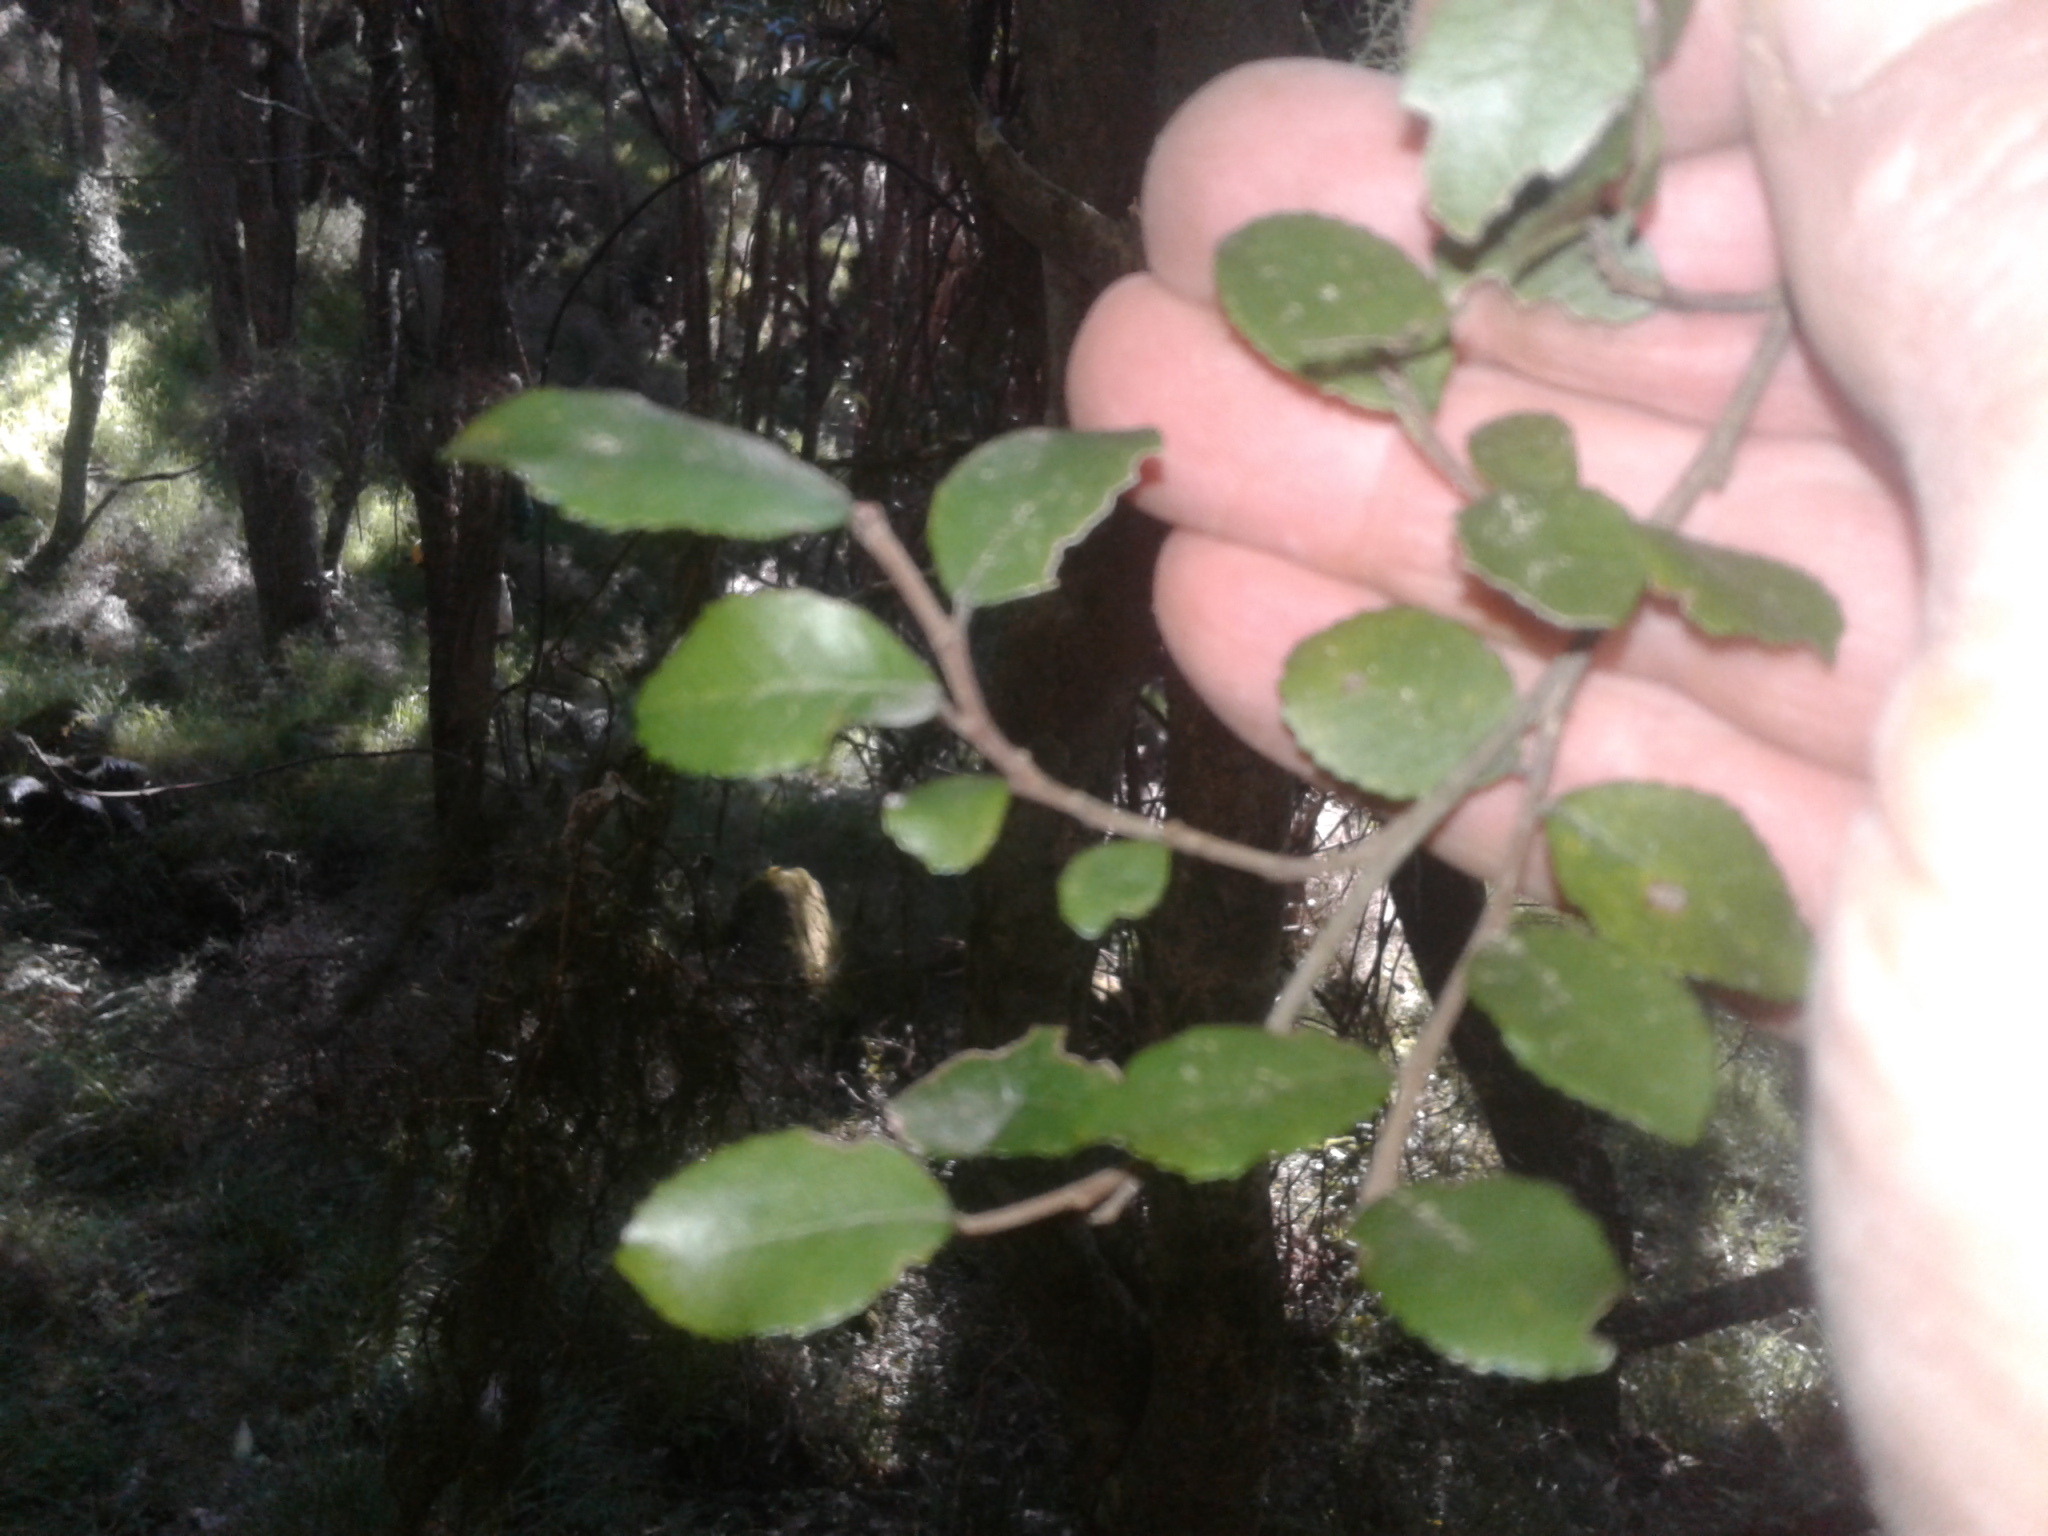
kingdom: Plantae
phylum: Tracheophyta
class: Magnoliopsida
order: Rosales
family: Moraceae
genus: Paratrophis
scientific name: Paratrophis microphylla
